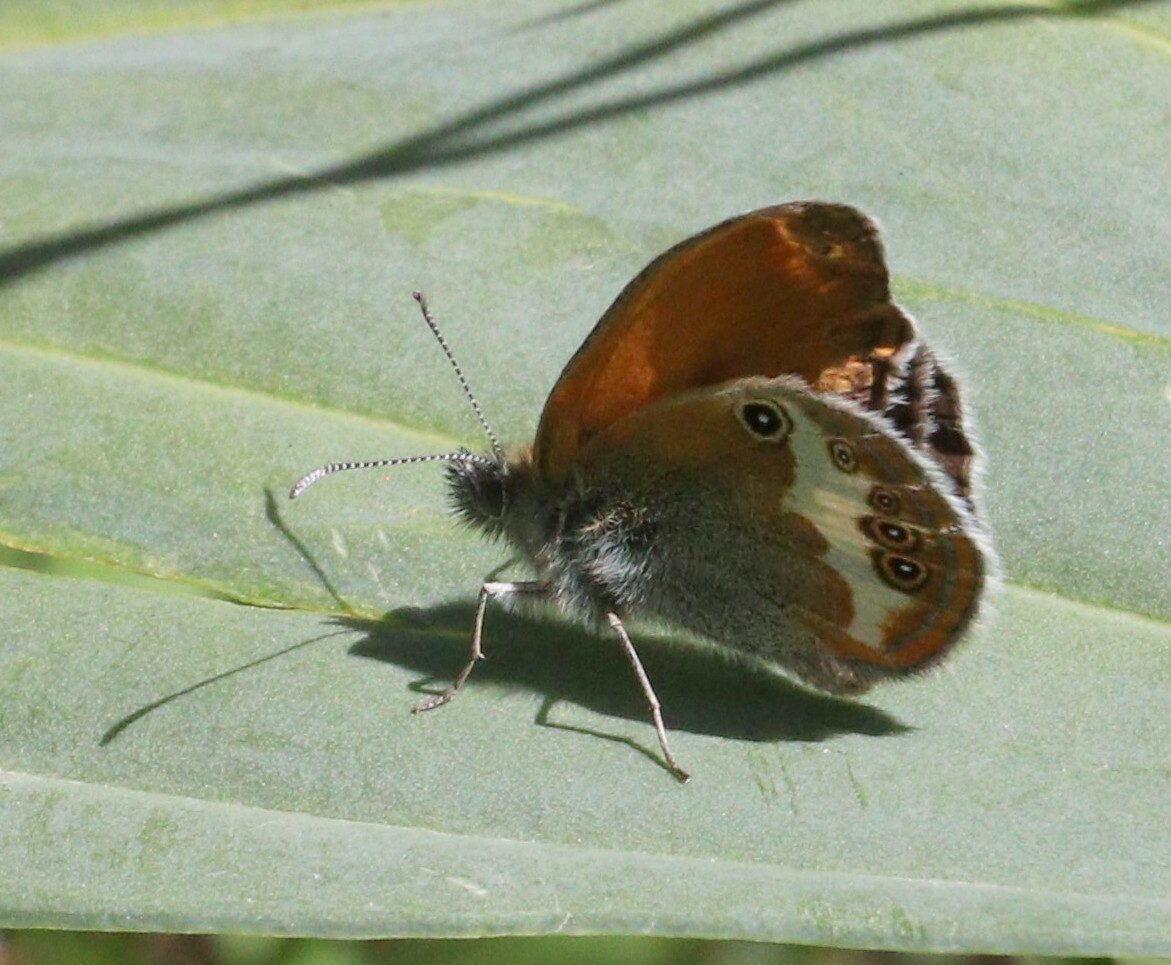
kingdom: Animalia
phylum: Arthropoda
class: Insecta
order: Lepidoptera
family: Nymphalidae
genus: Coenonympha
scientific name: Coenonympha arcania
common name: Pearly heath
